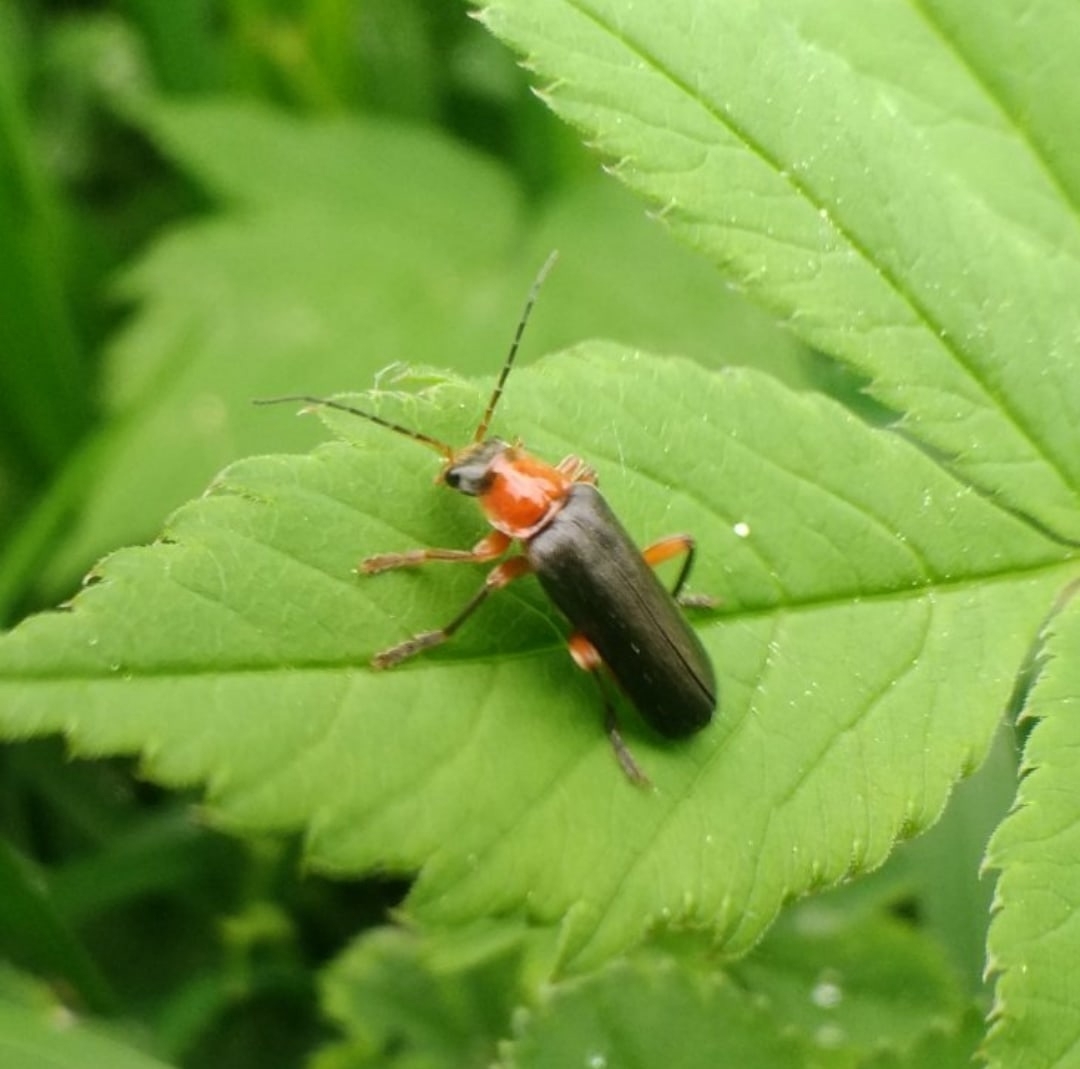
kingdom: Animalia
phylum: Arthropoda
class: Insecta
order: Coleoptera
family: Cantharidae
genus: Cantharis
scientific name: Cantharis pellucida
